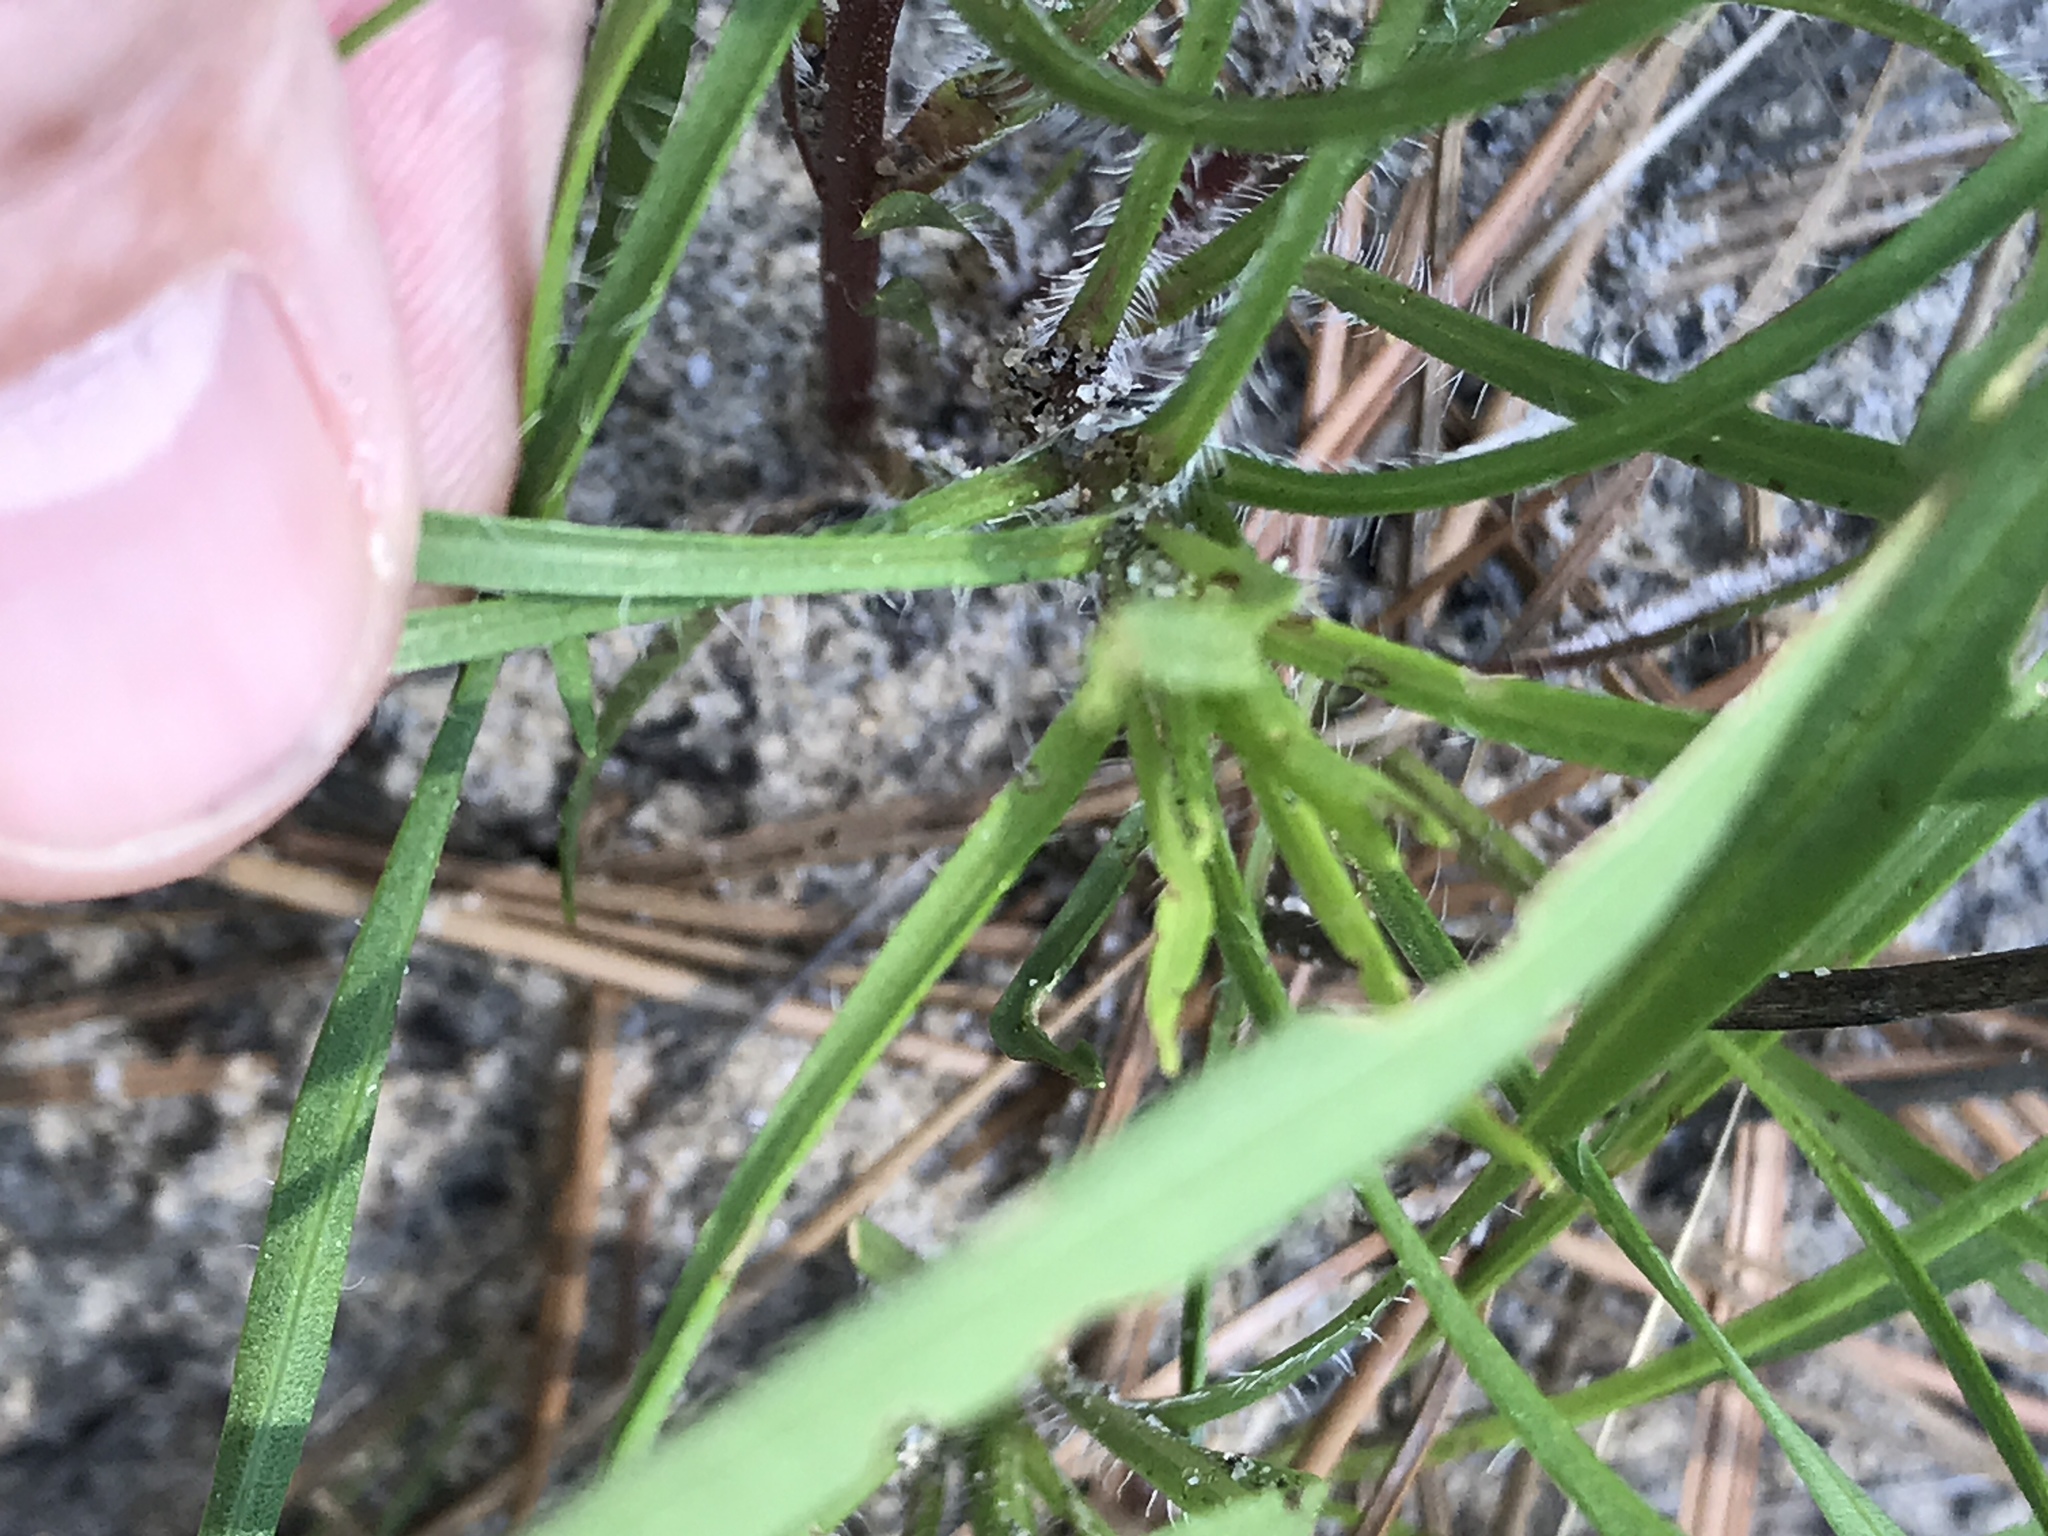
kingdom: Plantae
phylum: Tracheophyta
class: Magnoliopsida
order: Asterales
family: Asteraceae
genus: Liatris
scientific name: Liatris cokeri
